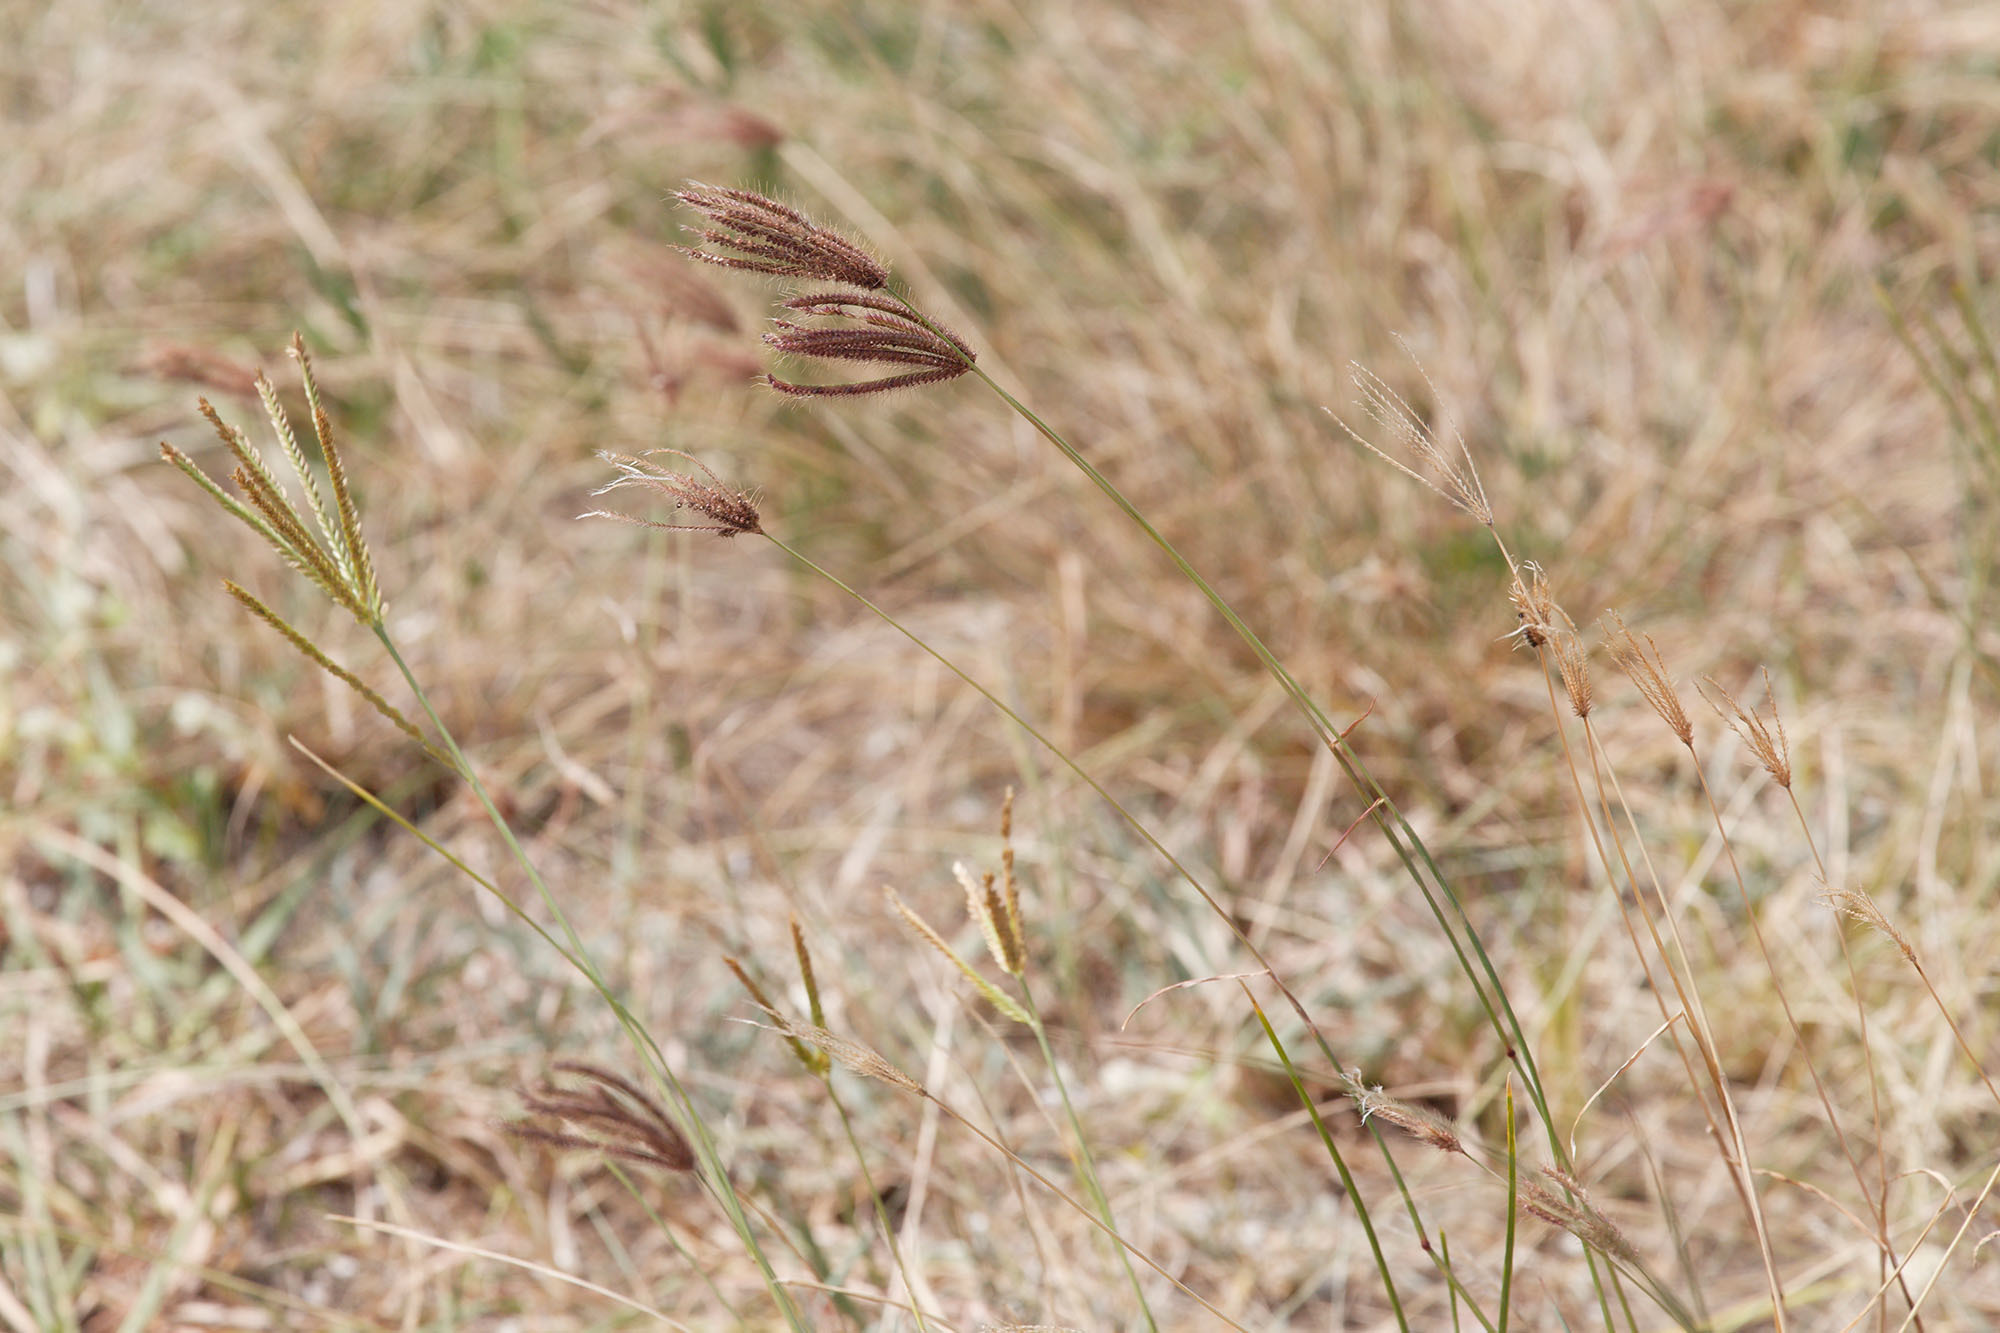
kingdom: Plantae
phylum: Tracheophyta
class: Liliopsida
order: Poales
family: Poaceae
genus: Chloris
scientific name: Chloris barbata
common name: Swollen fingergrass
